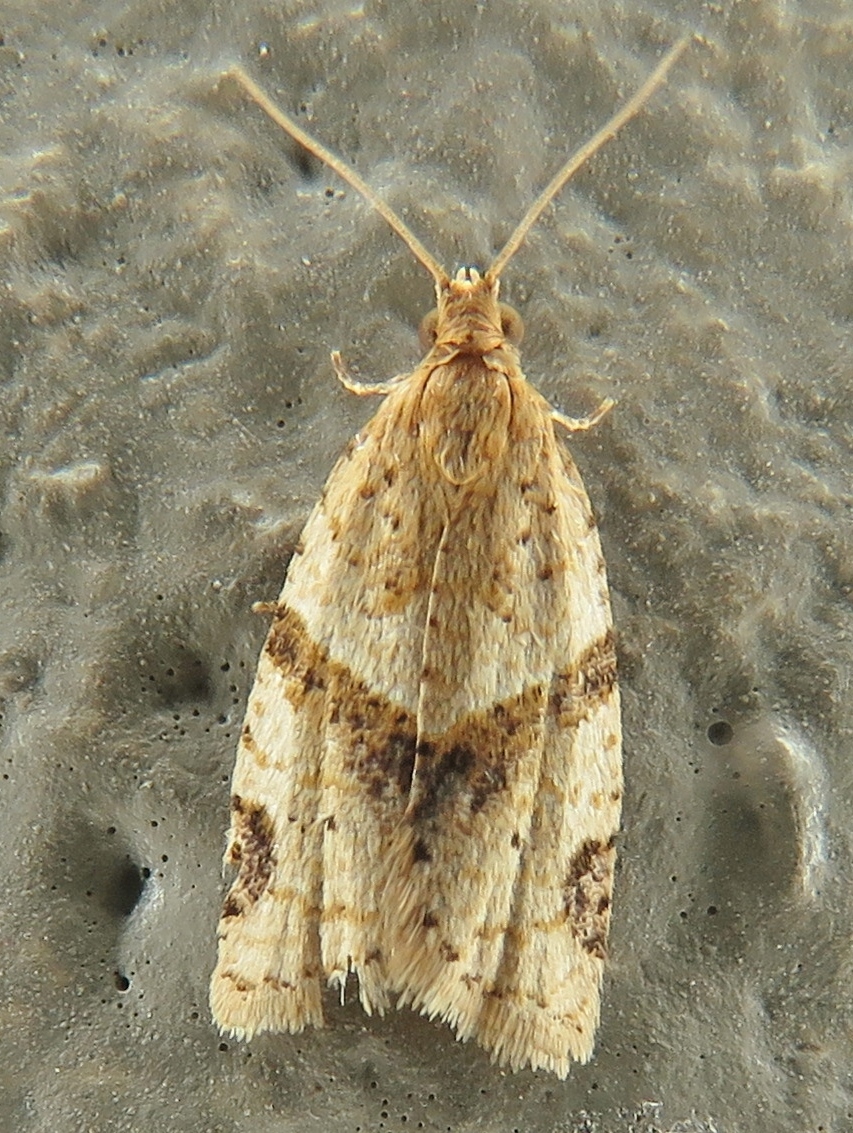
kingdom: Animalia
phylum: Arthropoda
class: Insecta
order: Lepidoptera
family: Tortricidae
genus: Clepsis
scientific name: Clepsis peritana
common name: Garden tortrix
